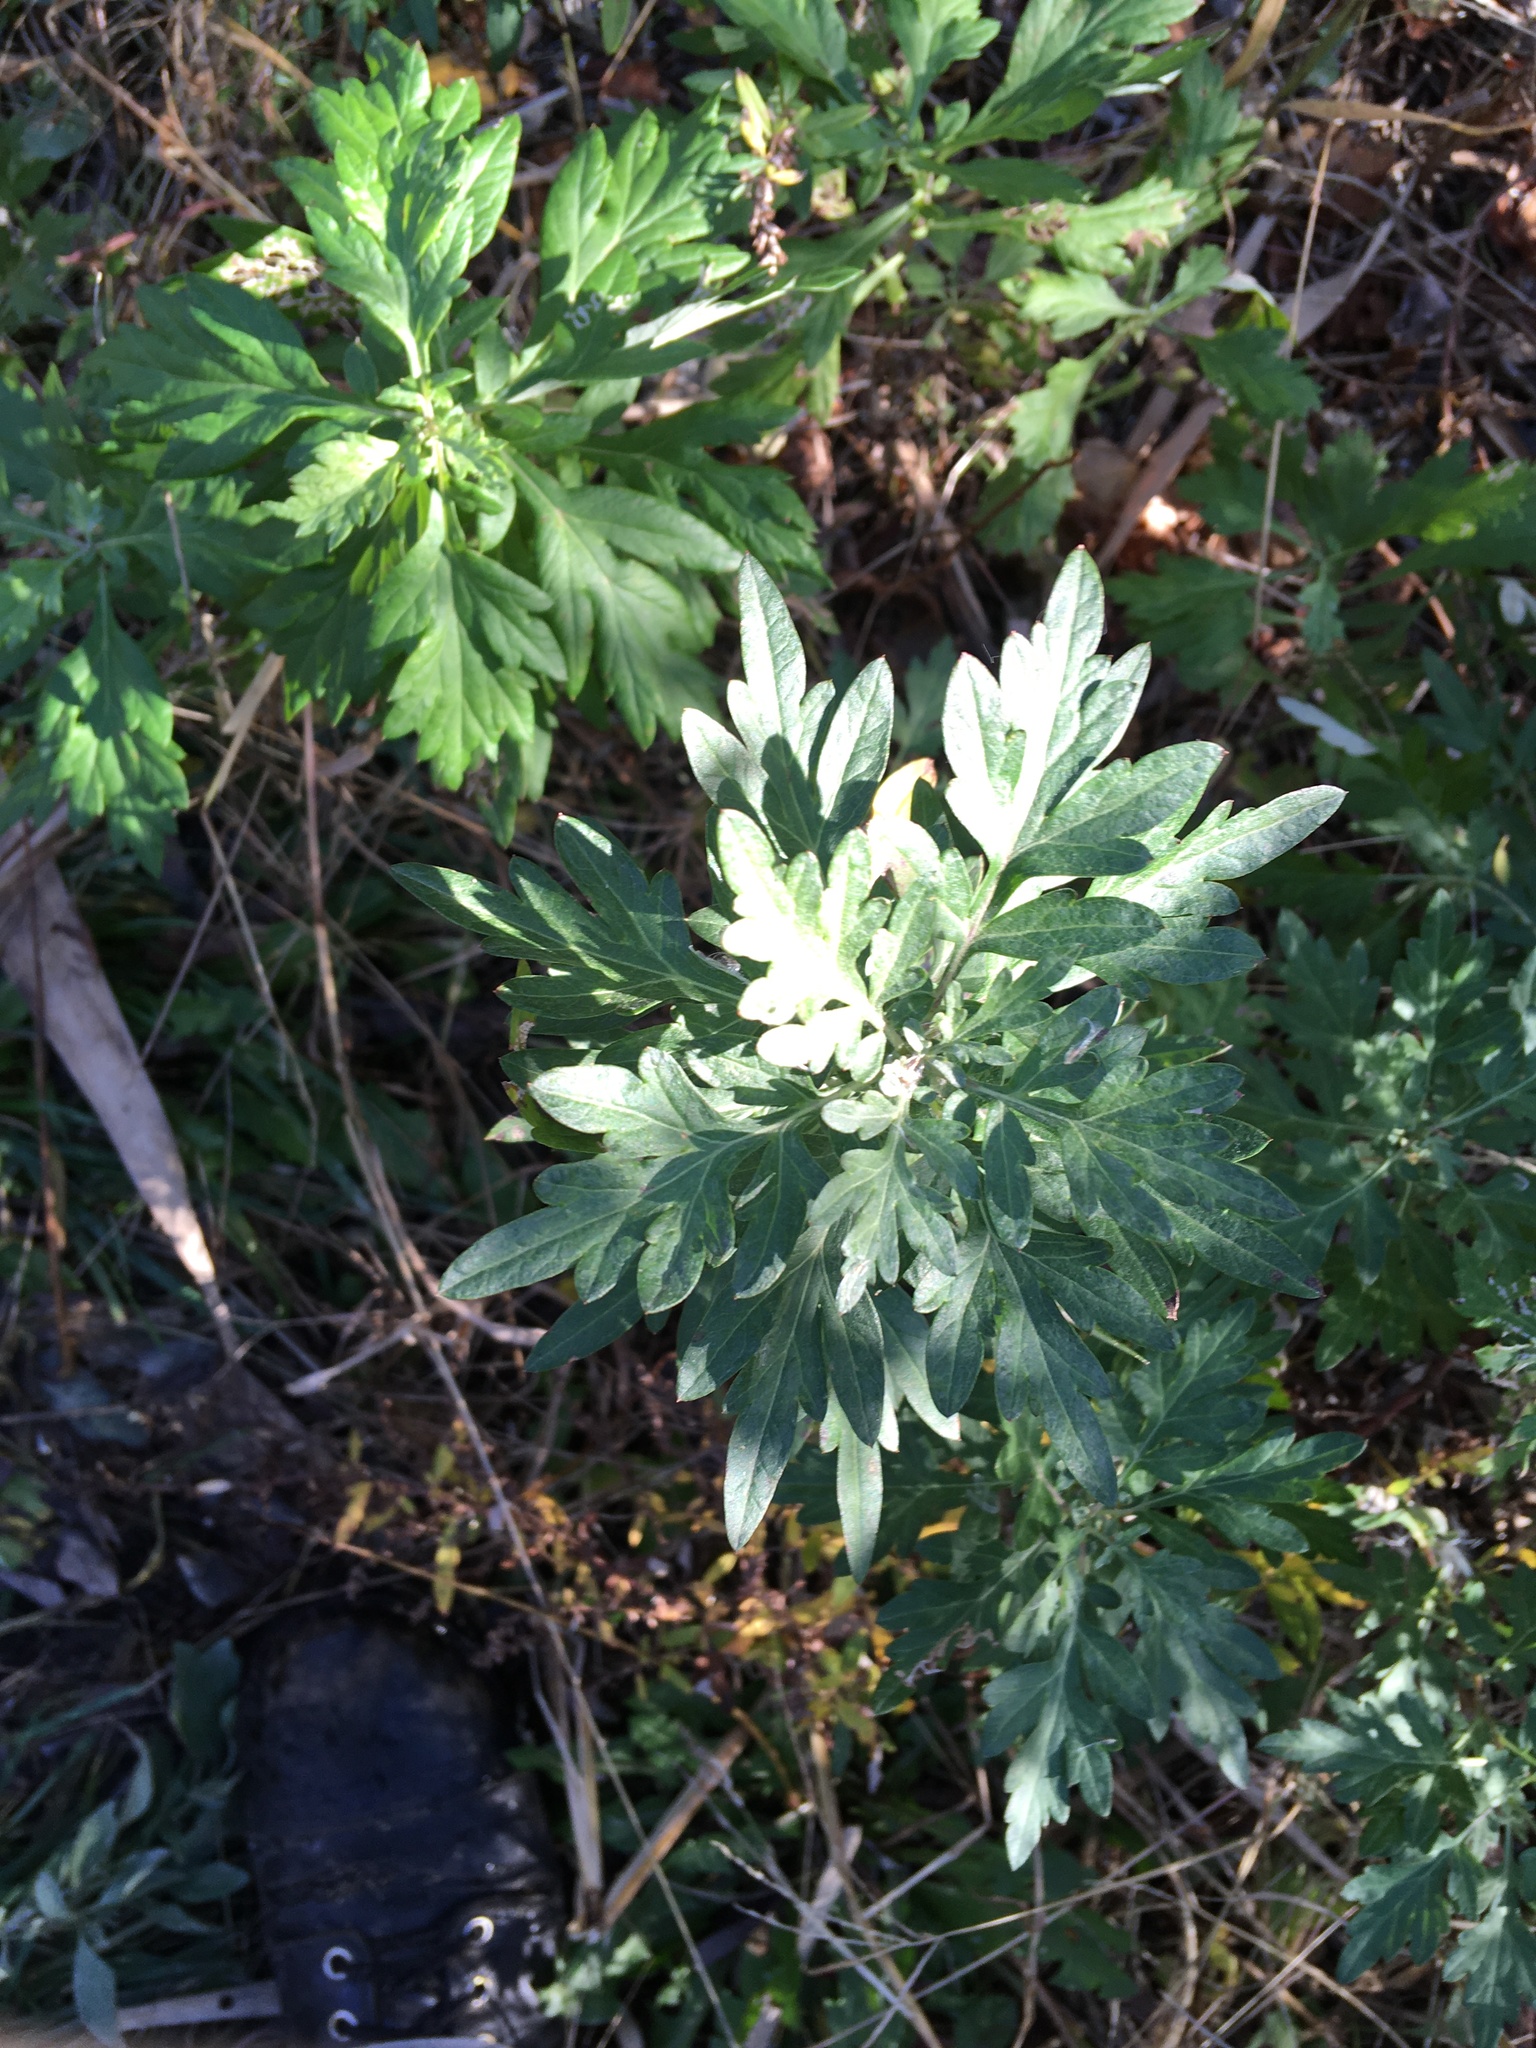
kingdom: Plantae
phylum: Tracheophyta
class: Magnoliopsida
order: Asterales
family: Asteraceae
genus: Artemisia
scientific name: Artemisia vulgaris
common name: Mugwort
